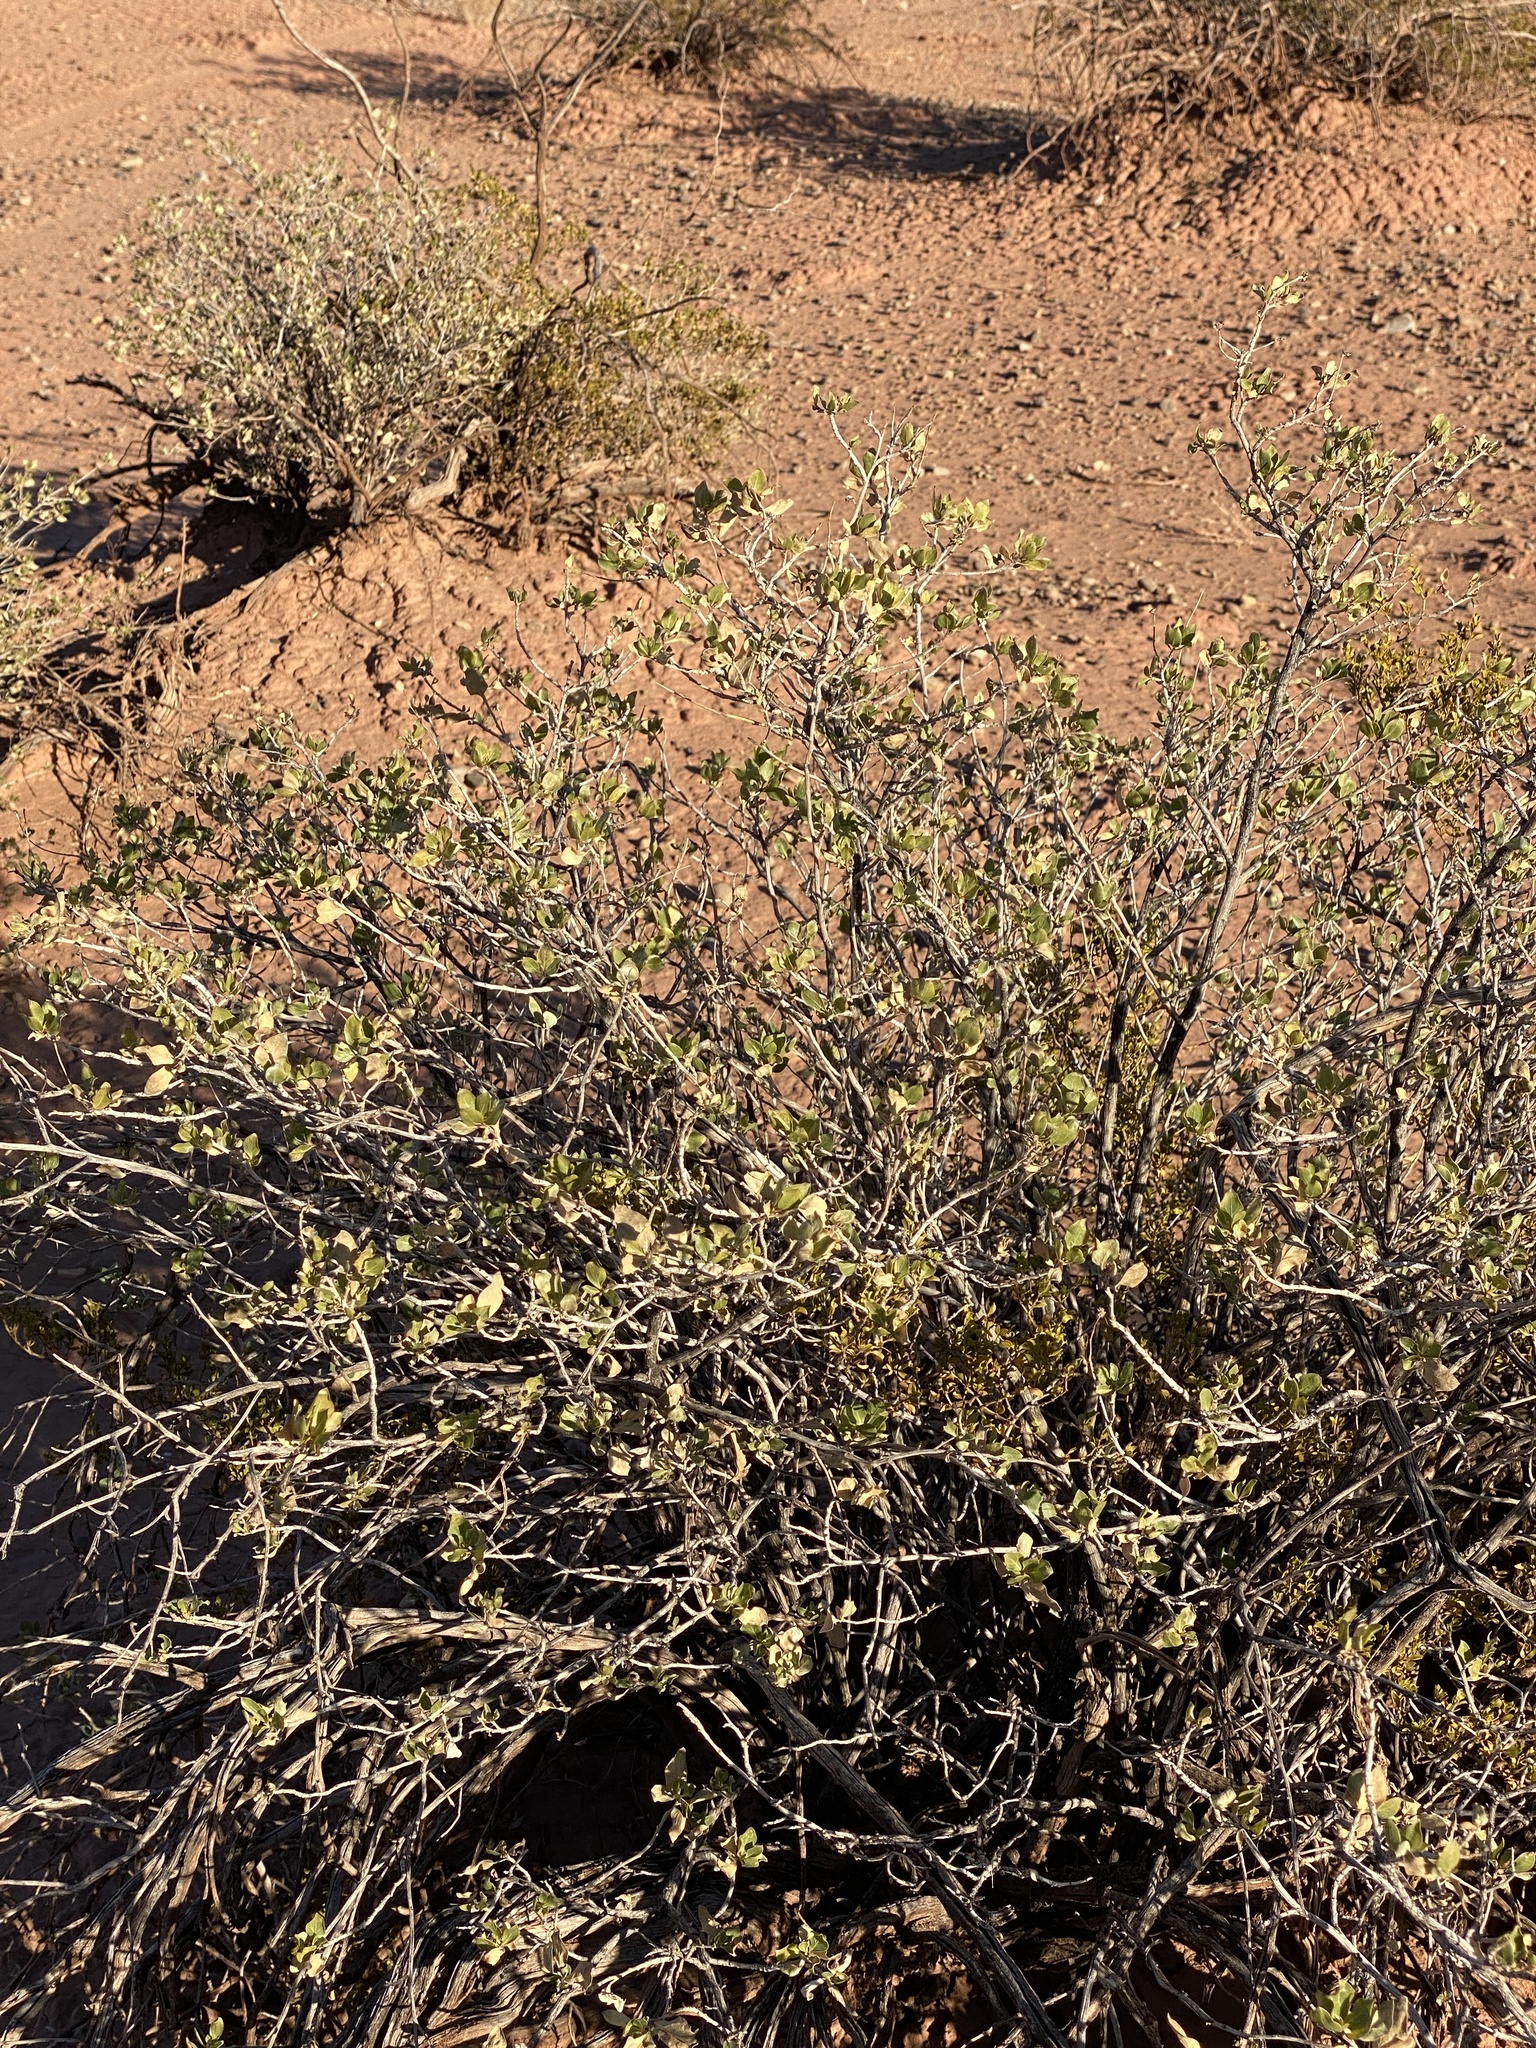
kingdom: Plantae
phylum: Tracheophyta
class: Magnoliopsida
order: Asterales
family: Asteraceae
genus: Flourensia
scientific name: Flourensia cernua
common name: Varnishbush
